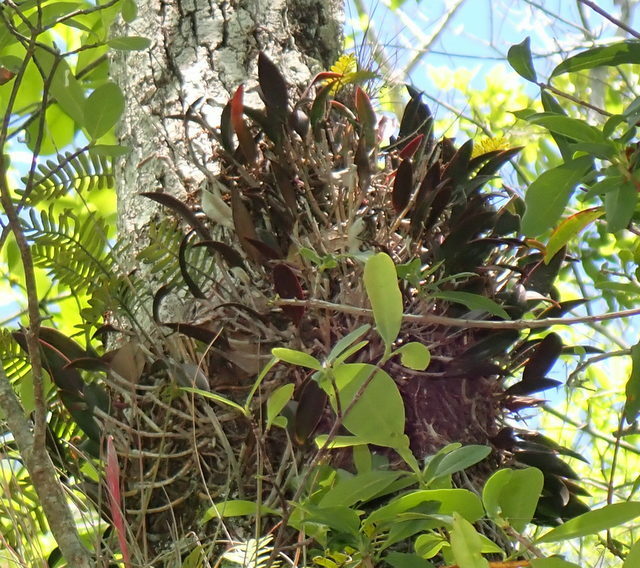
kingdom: Plantae
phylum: Tracheophyta
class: Liliopsida
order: Asparagales
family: Orchidaceae
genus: Epidendrum
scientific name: Epidendrum conopseum
